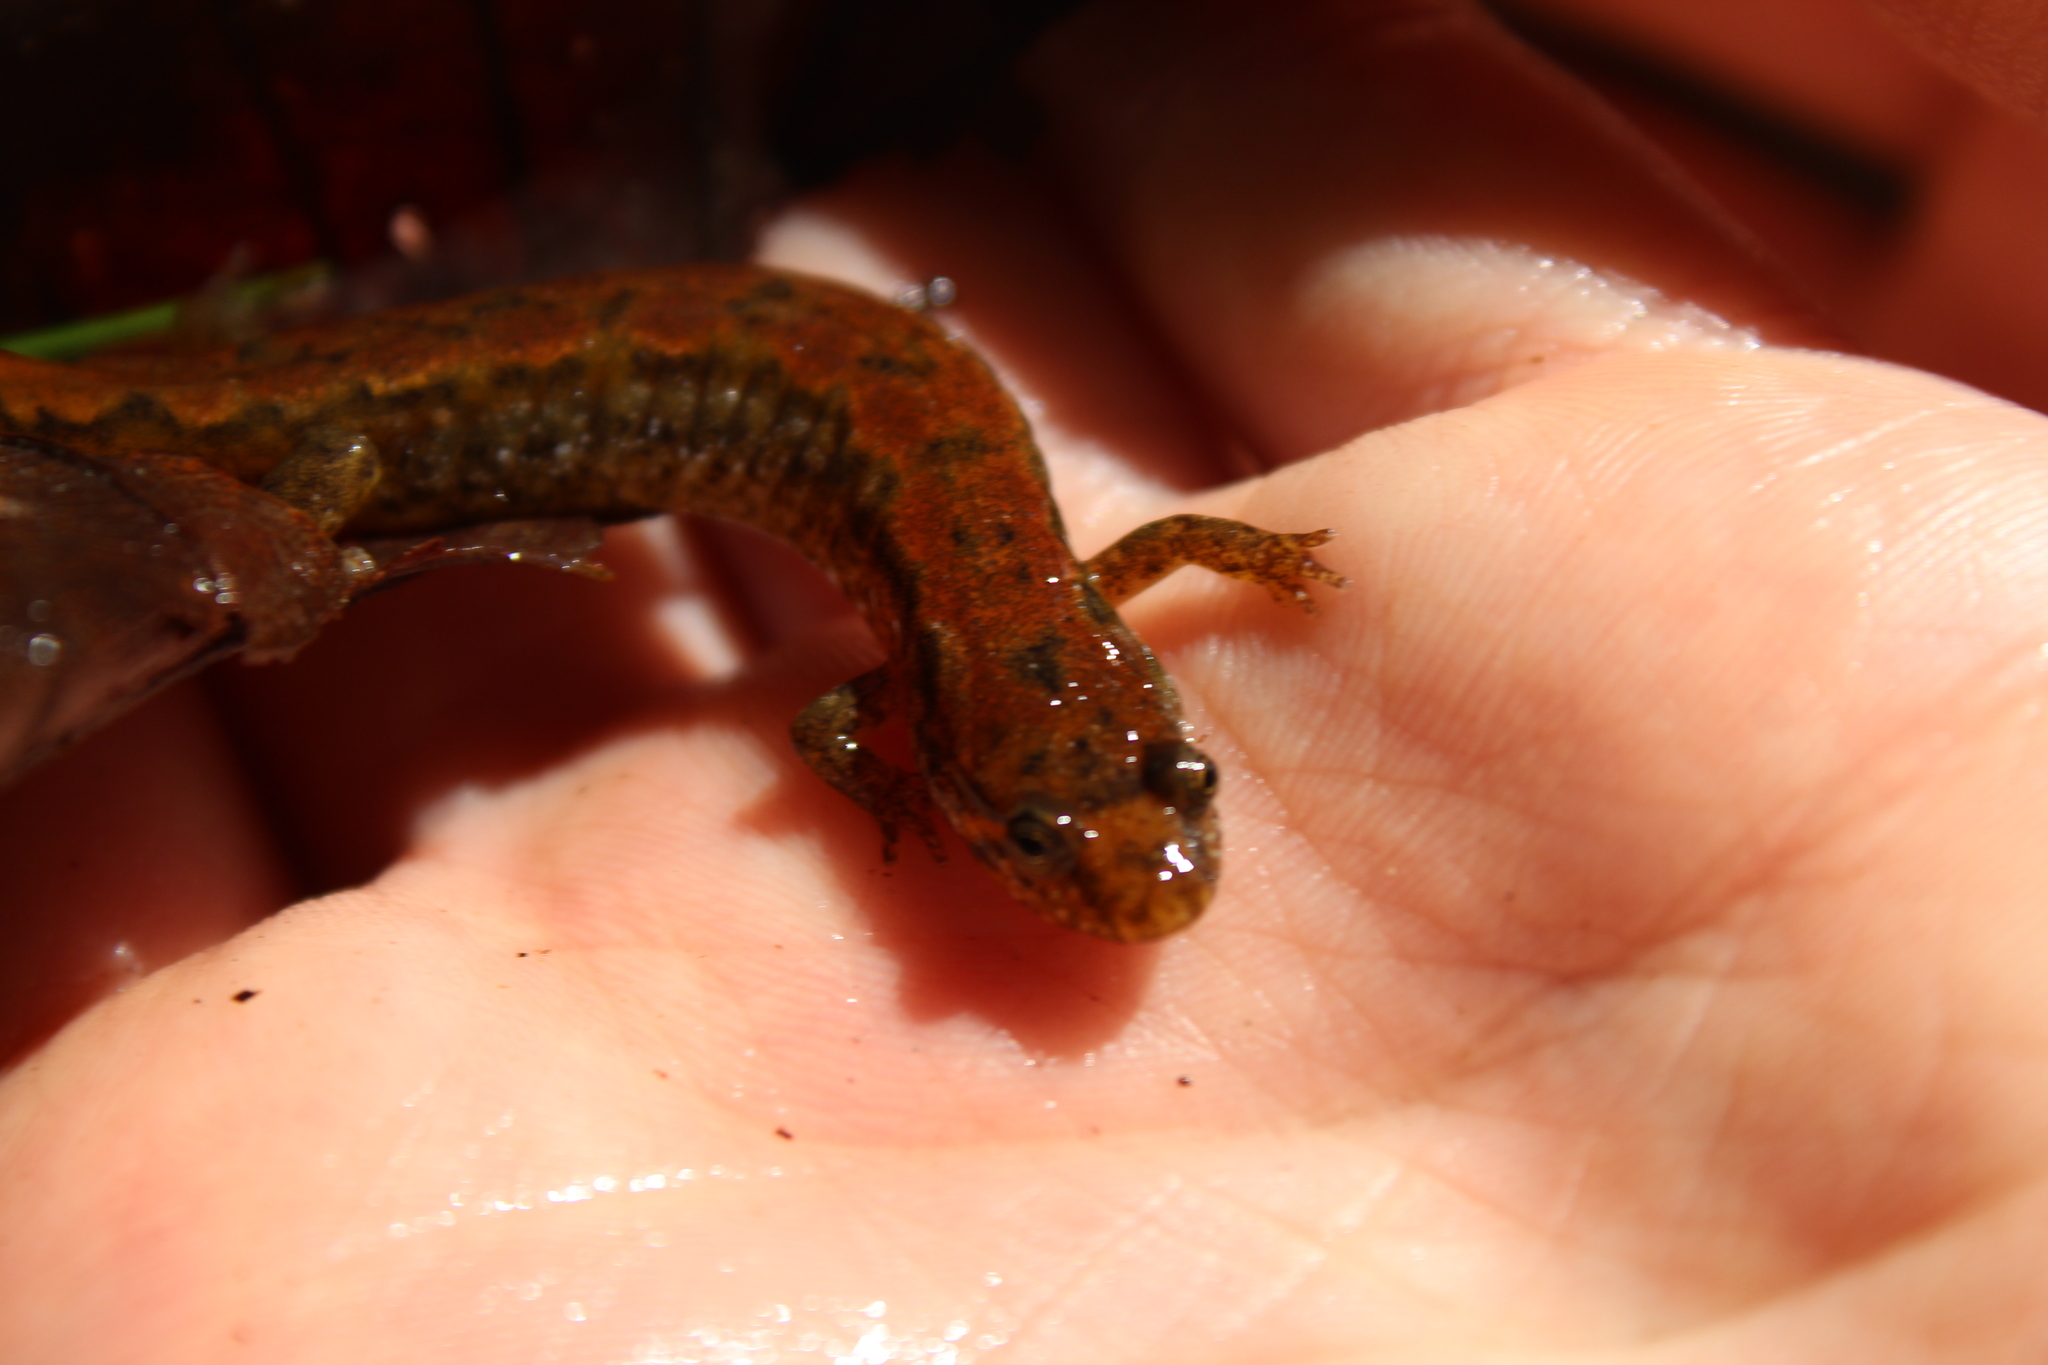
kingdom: Animalia
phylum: Chordata
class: Amphibia
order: Caudata
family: Plethodontidae
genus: Desmognathus
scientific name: Desmognathus fuscus
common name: Northern dusky salamander
